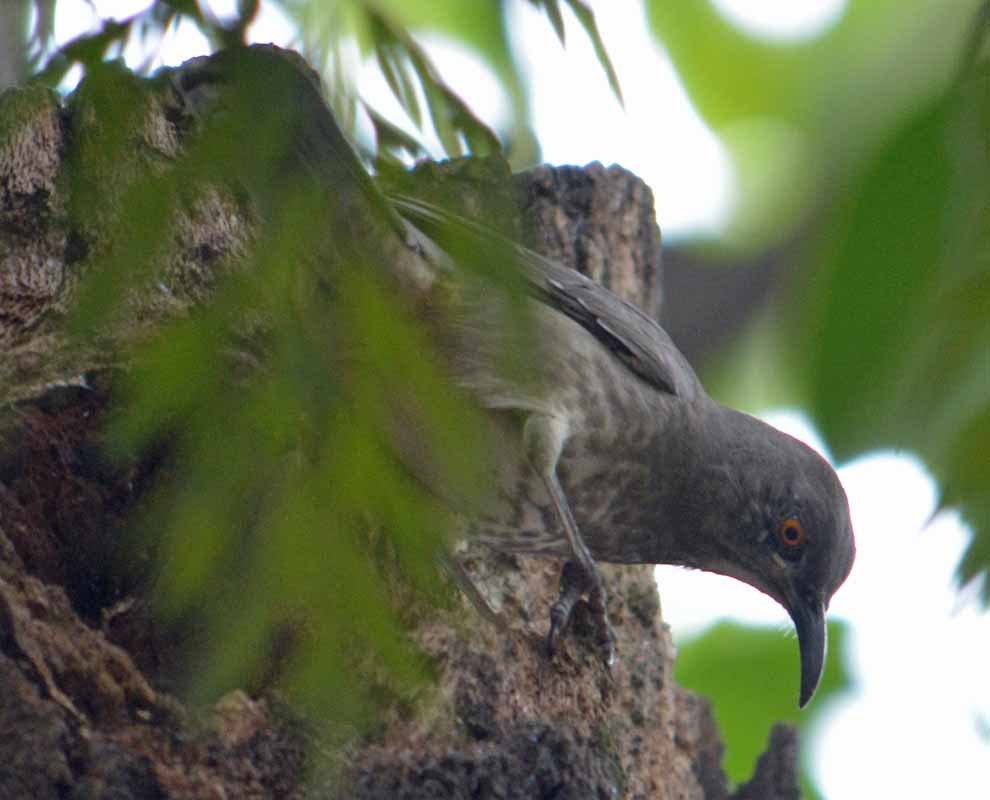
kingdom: Animalia
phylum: Chordata
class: Aves
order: Passeriformes
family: Mimidae
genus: Toxostoma
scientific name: Toxostoma curvirostre
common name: Curve-billed thrasher
